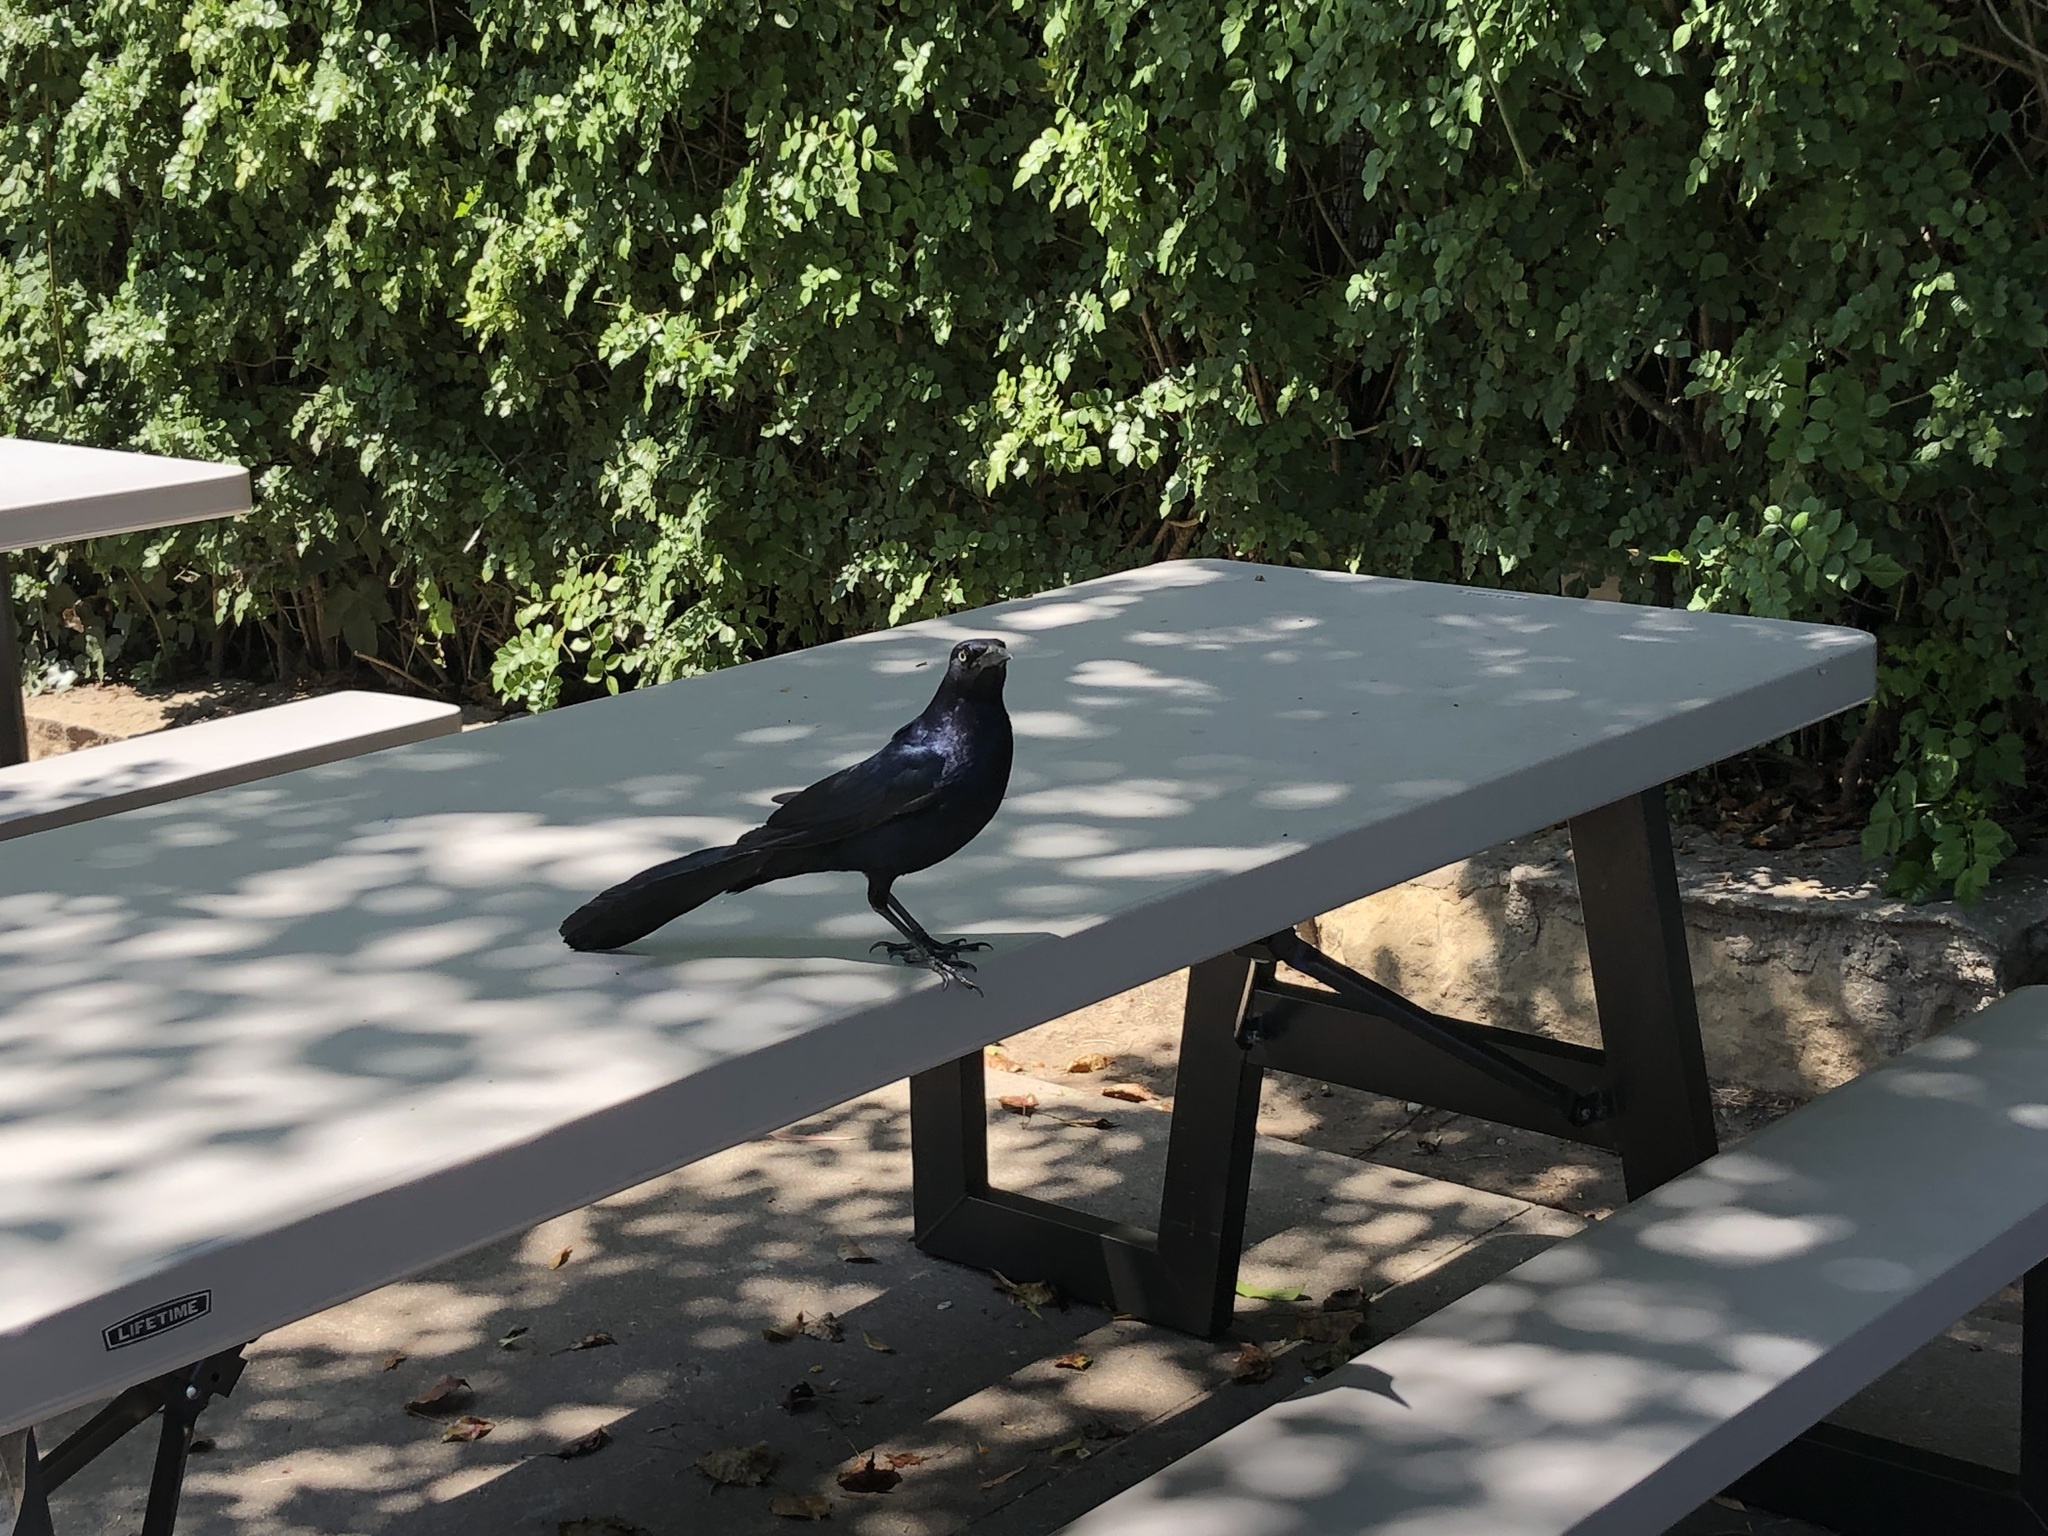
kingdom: Animalia
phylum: Chordata
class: Aves
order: Passeriformes
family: Icteridae
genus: Quiscalus
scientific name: Quiscalus mexicanus
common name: Great-tailed grackle
